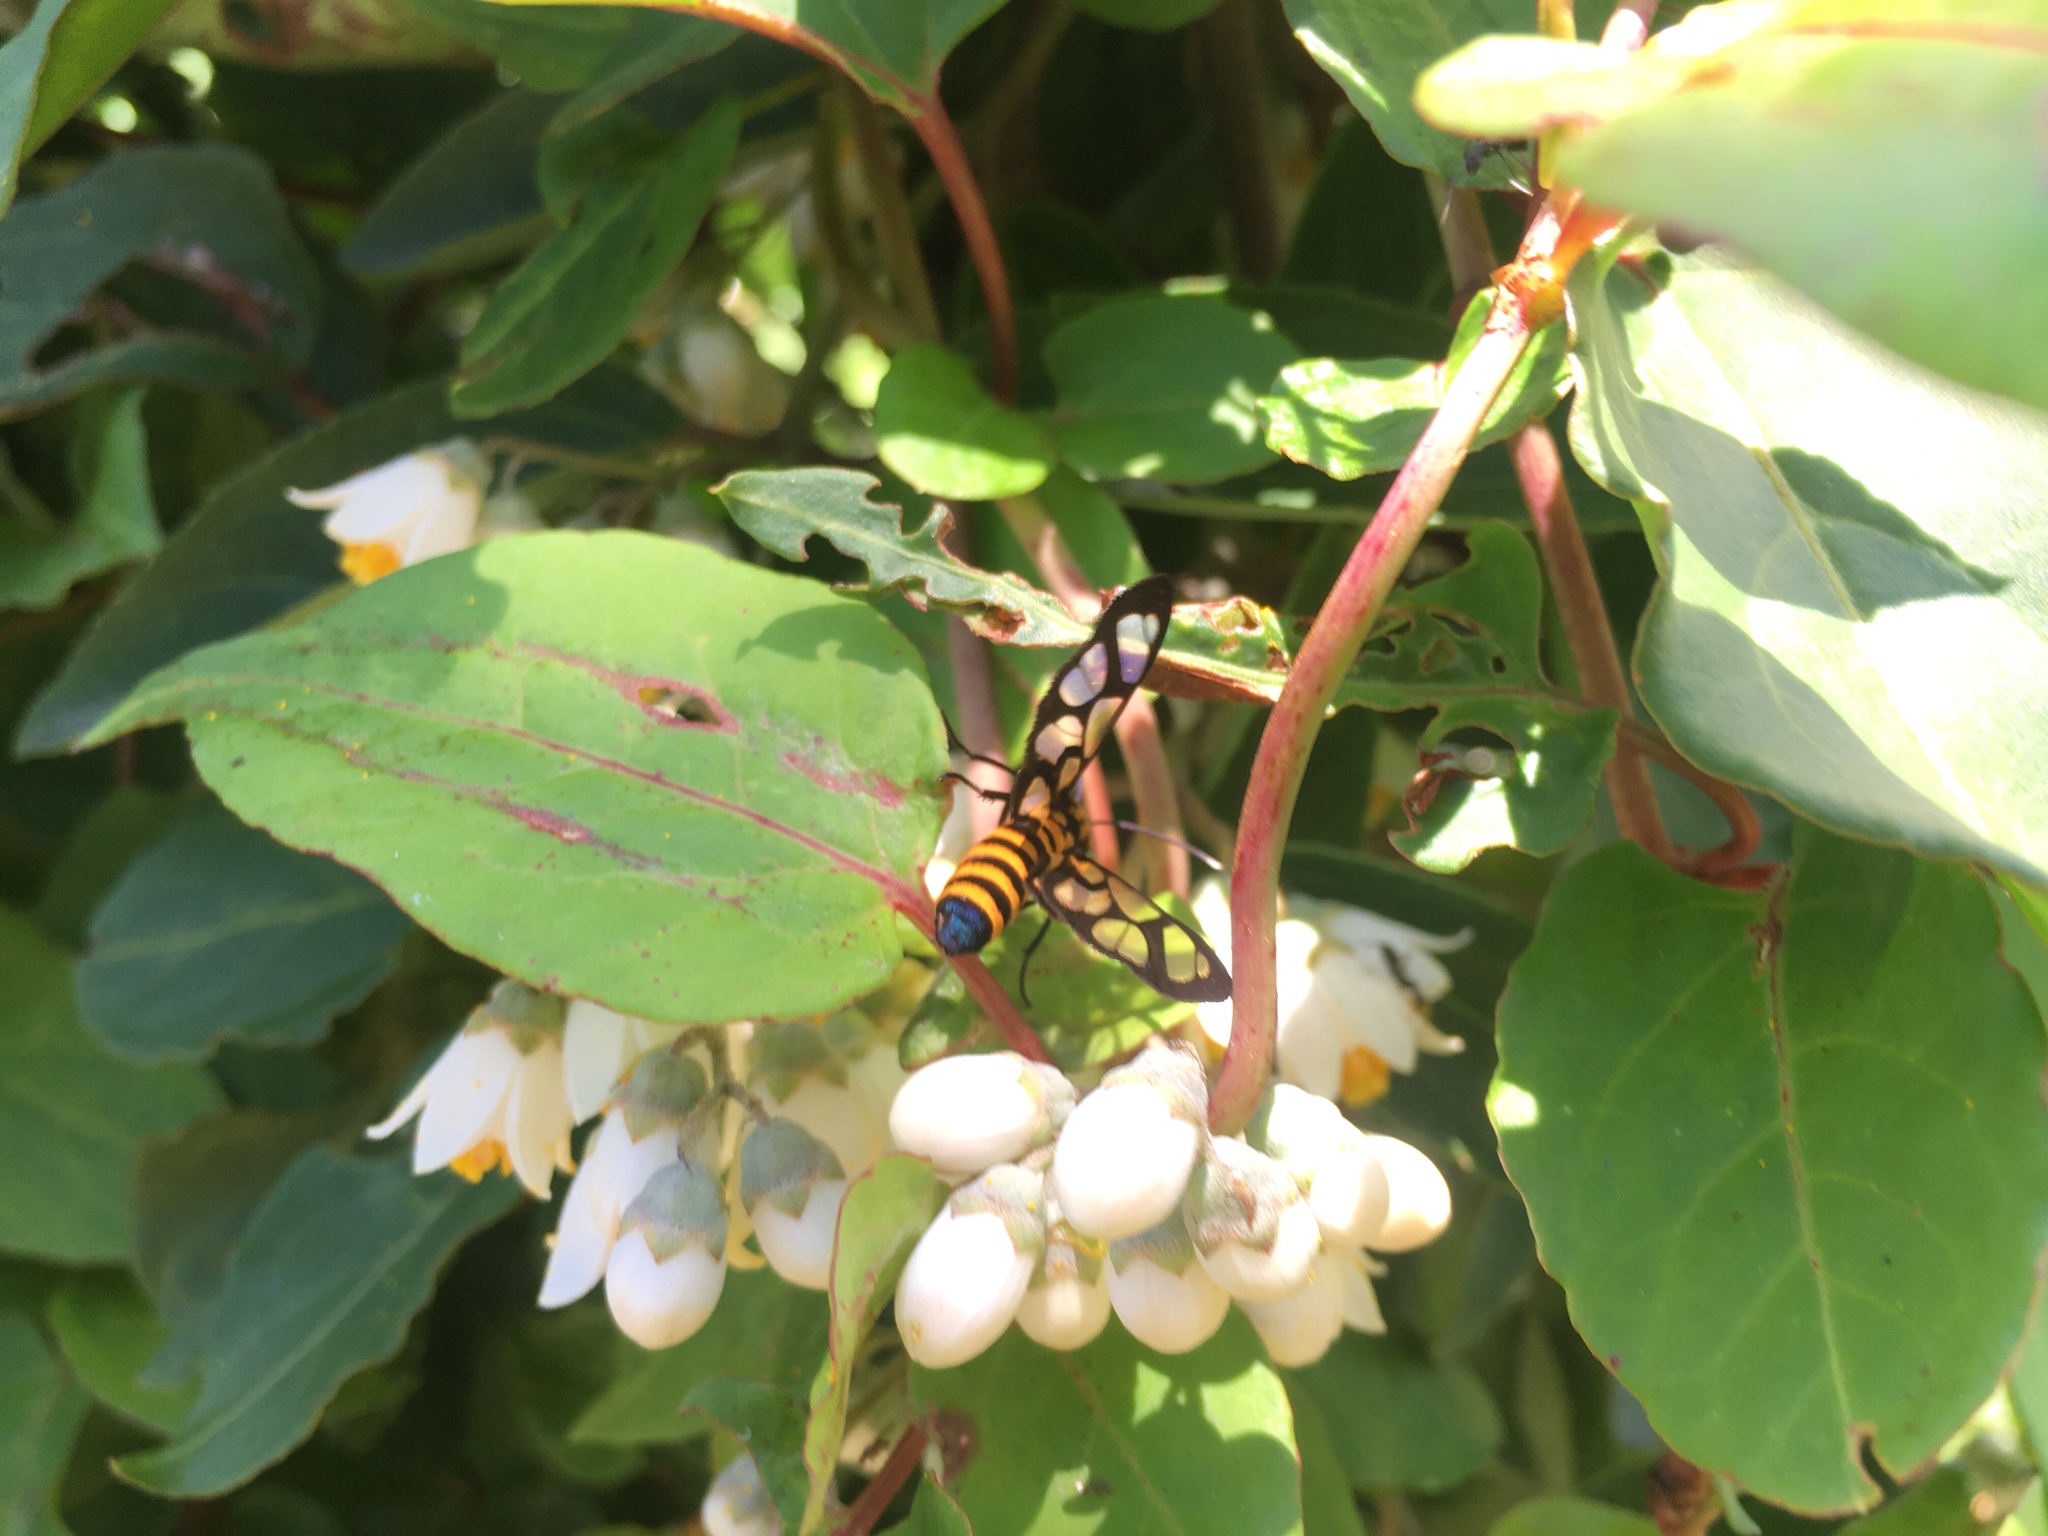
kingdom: Animalia
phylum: Arthropoda
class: Insecta
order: Lepidoptera
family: Erebidae
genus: Amata
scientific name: Amata persimilis
